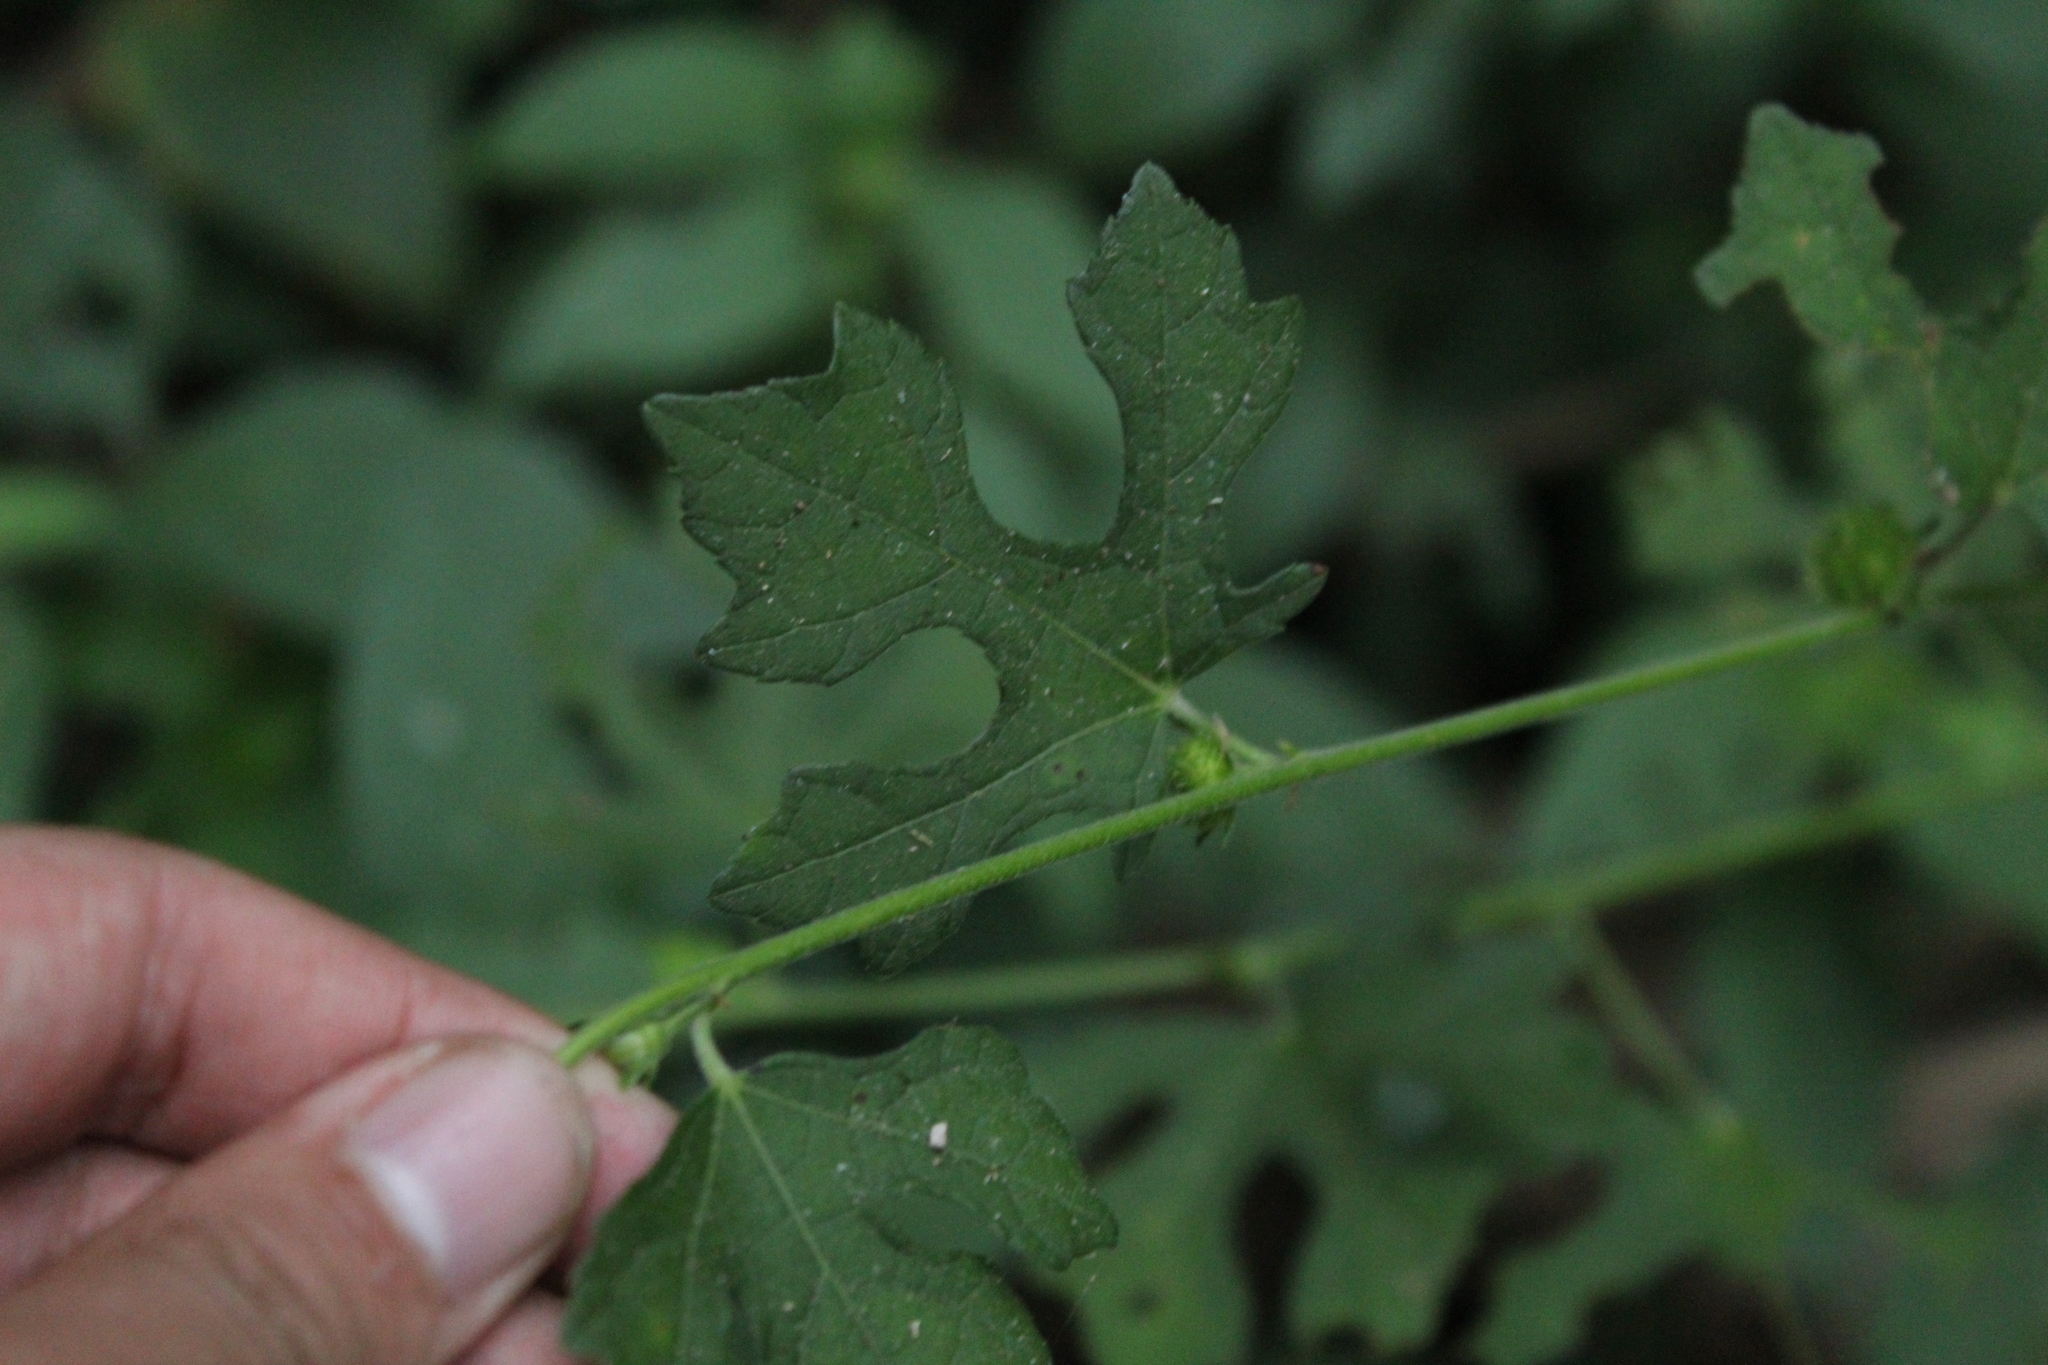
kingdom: Plantae
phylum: Tracheophyta
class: Magnoliopsida
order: Malvales
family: Malvaceae
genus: Urena
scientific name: Urena procumbens
